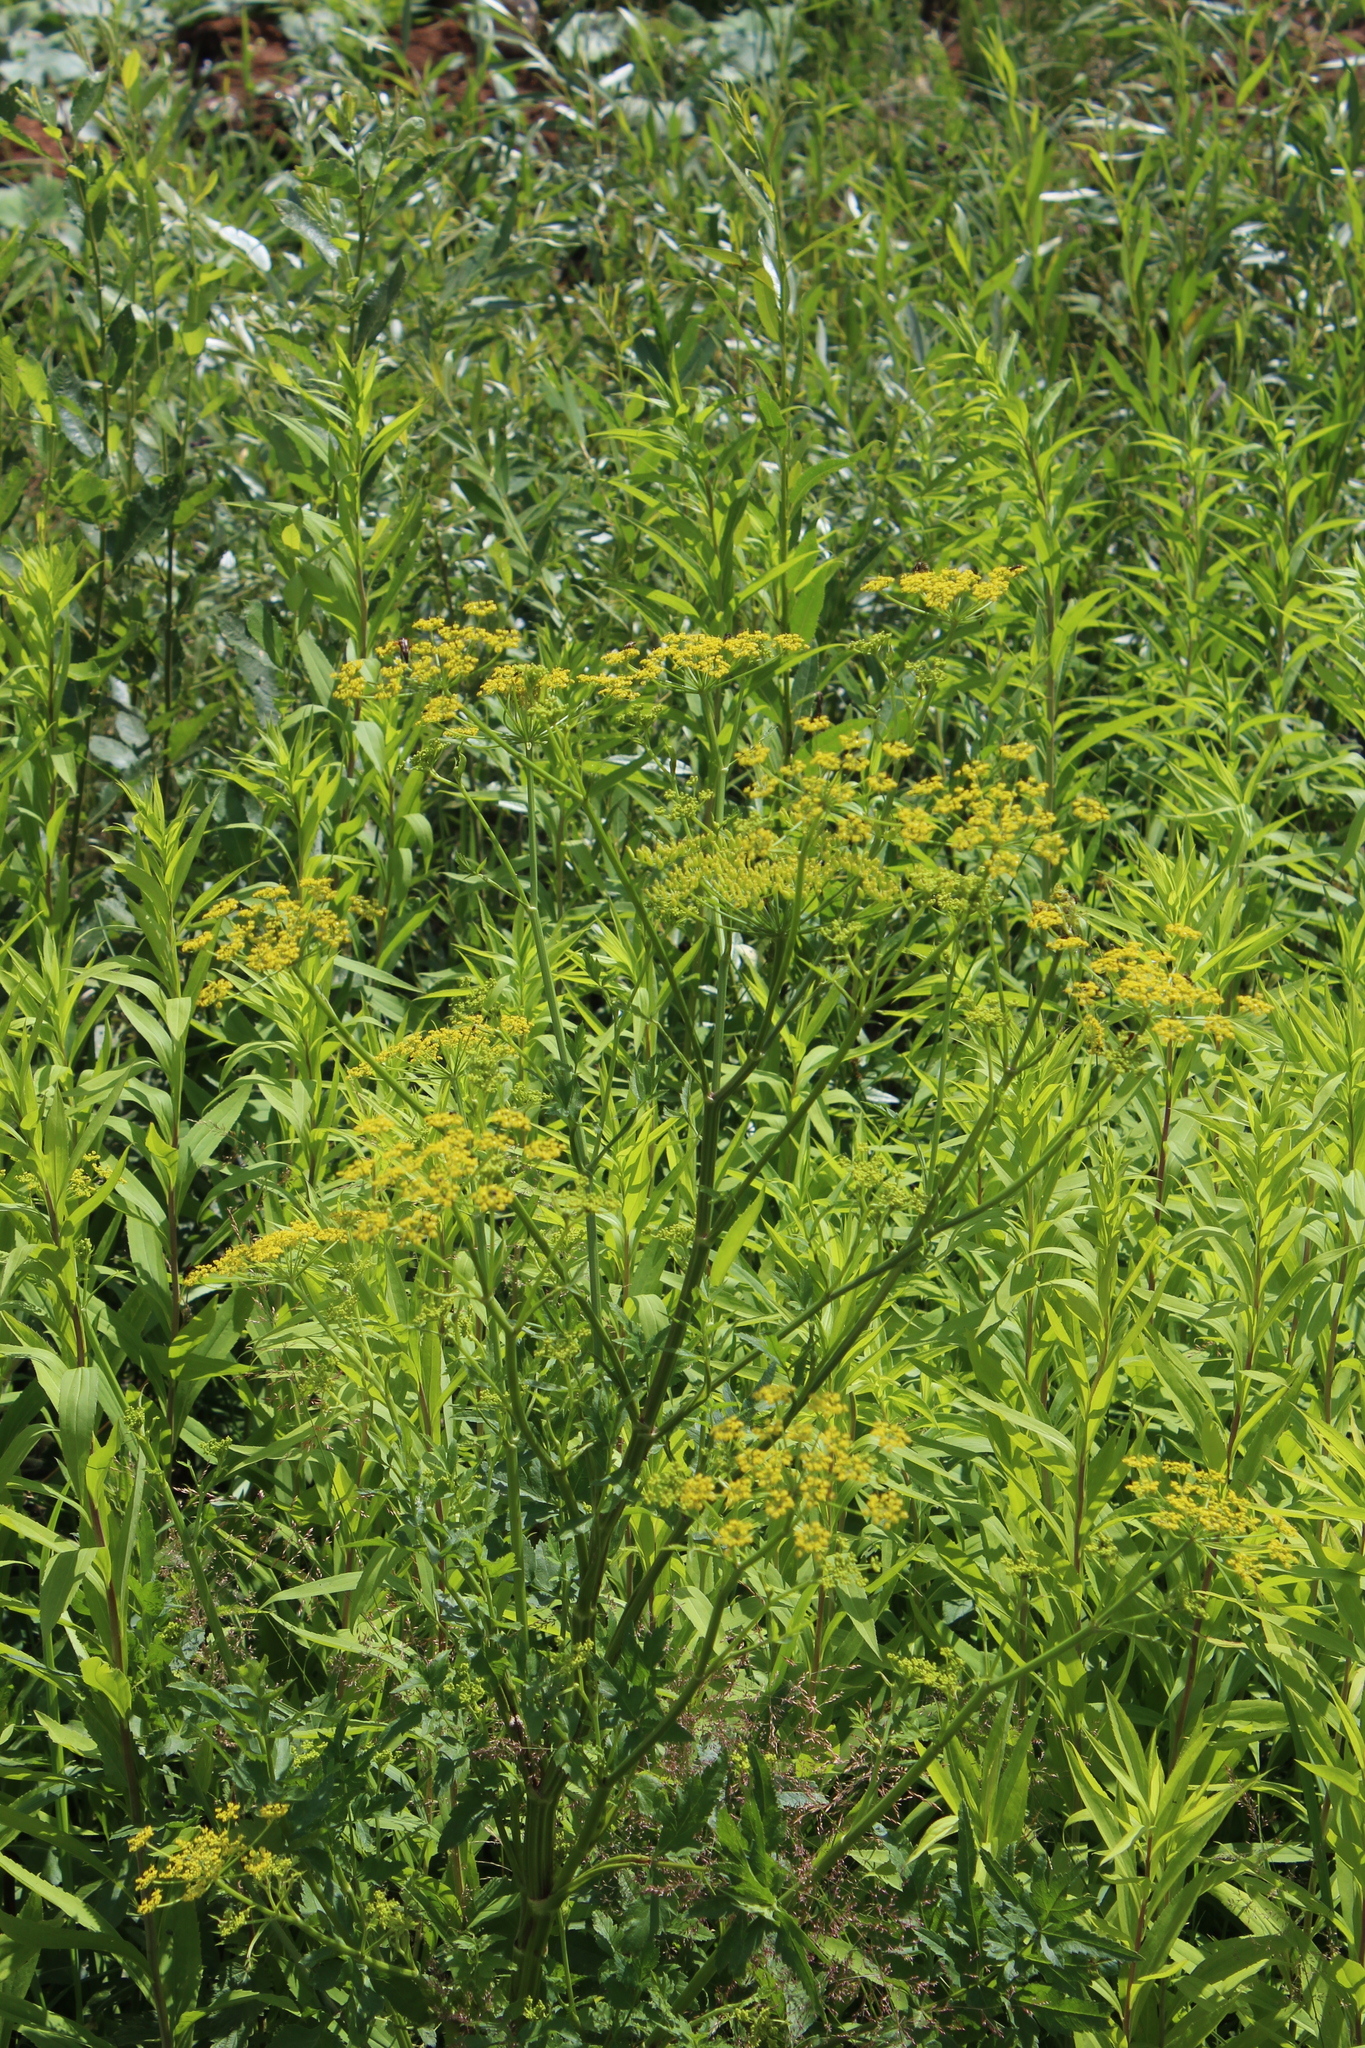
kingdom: Plantae
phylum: Tracheophyta
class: Magnoliopsida
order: Apiales
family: Apiaceae
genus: Pastinaca
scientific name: Pastinaca sativa
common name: Wild parsnip
